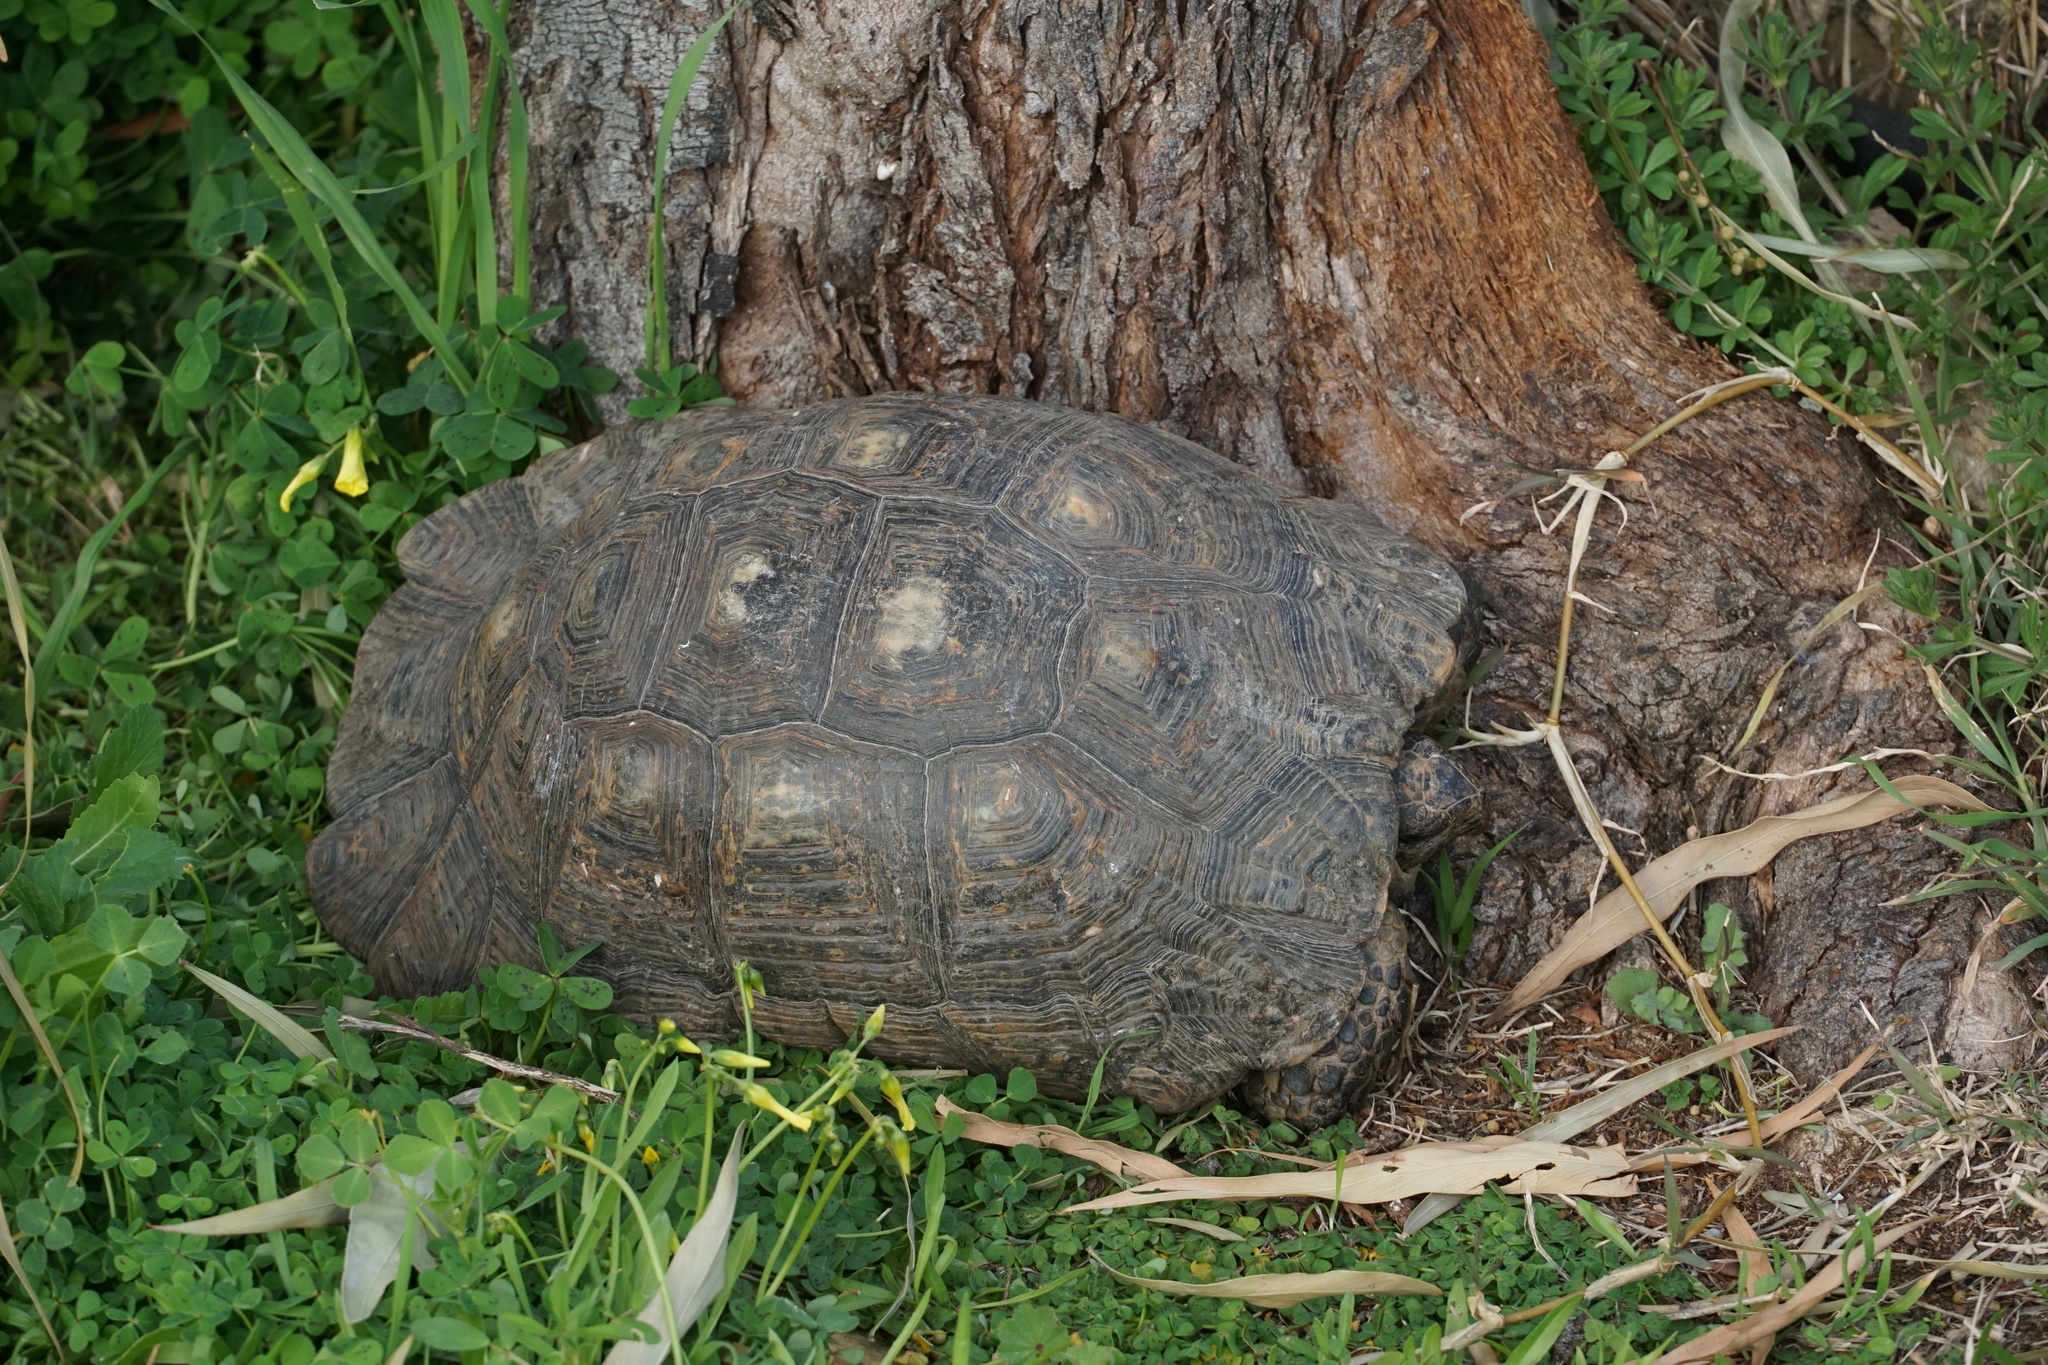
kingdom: Animalia
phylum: Chordata
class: Testudines
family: Testudinidae
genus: Testudo
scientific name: Testudo marginata
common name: Marginated tortoise
